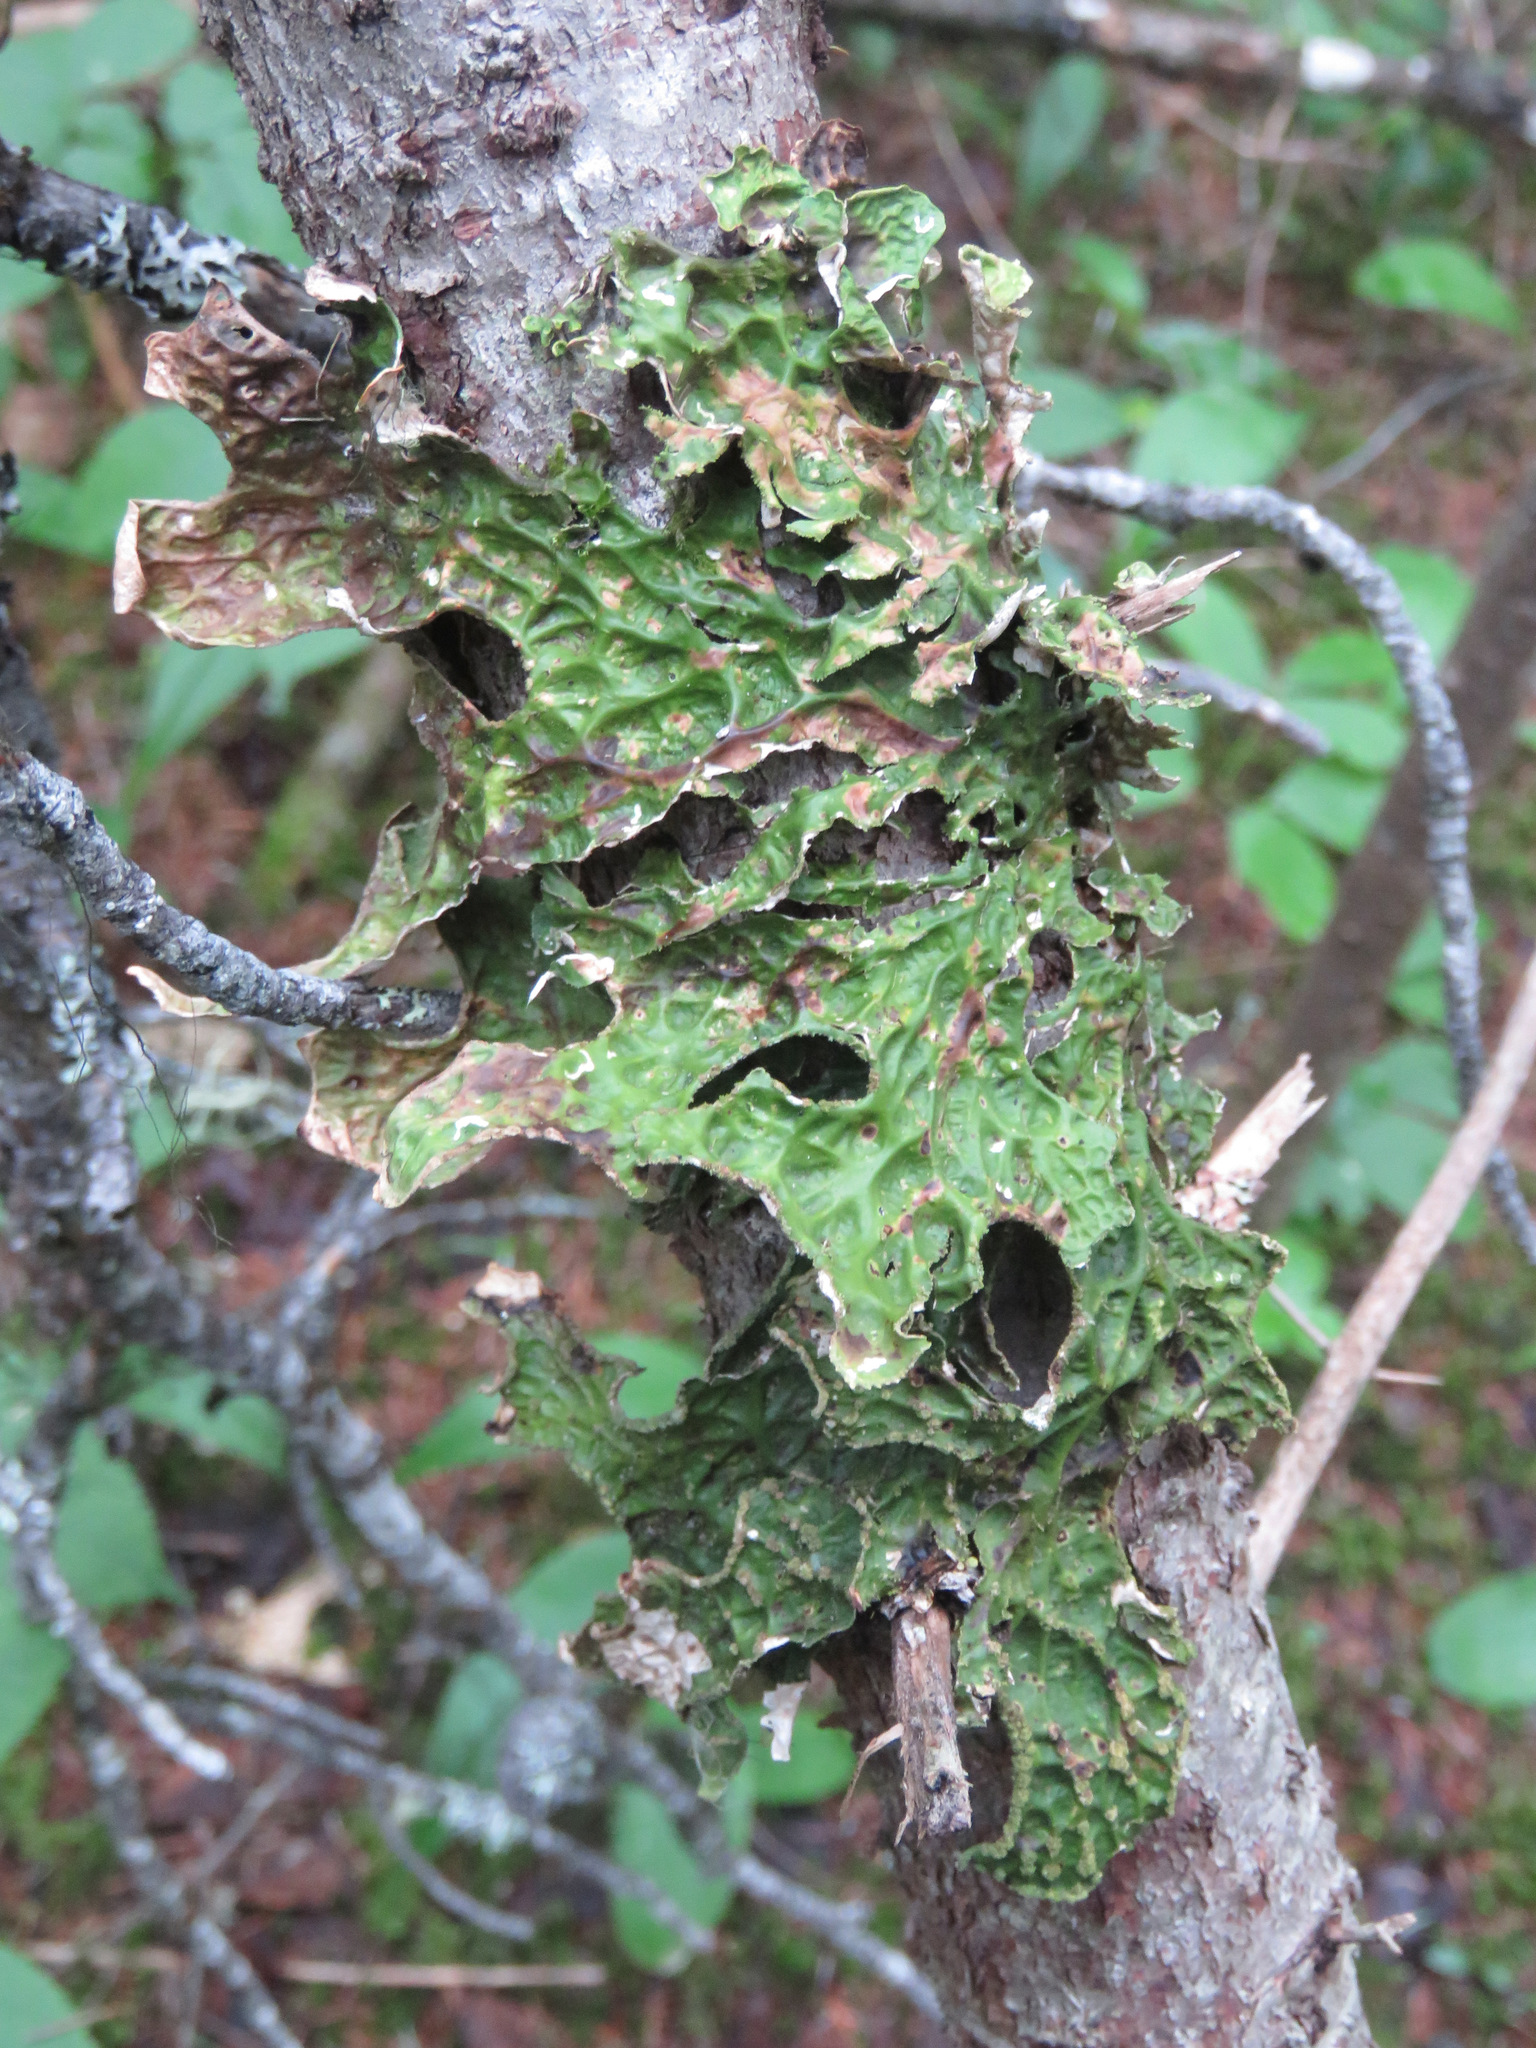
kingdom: Fungi
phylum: Ascomycota
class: Lecanoromycetes
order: Peltigerales
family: Lobariaceae
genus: Lobaria
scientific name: Lobaria pulmonaria
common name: Lungwort
